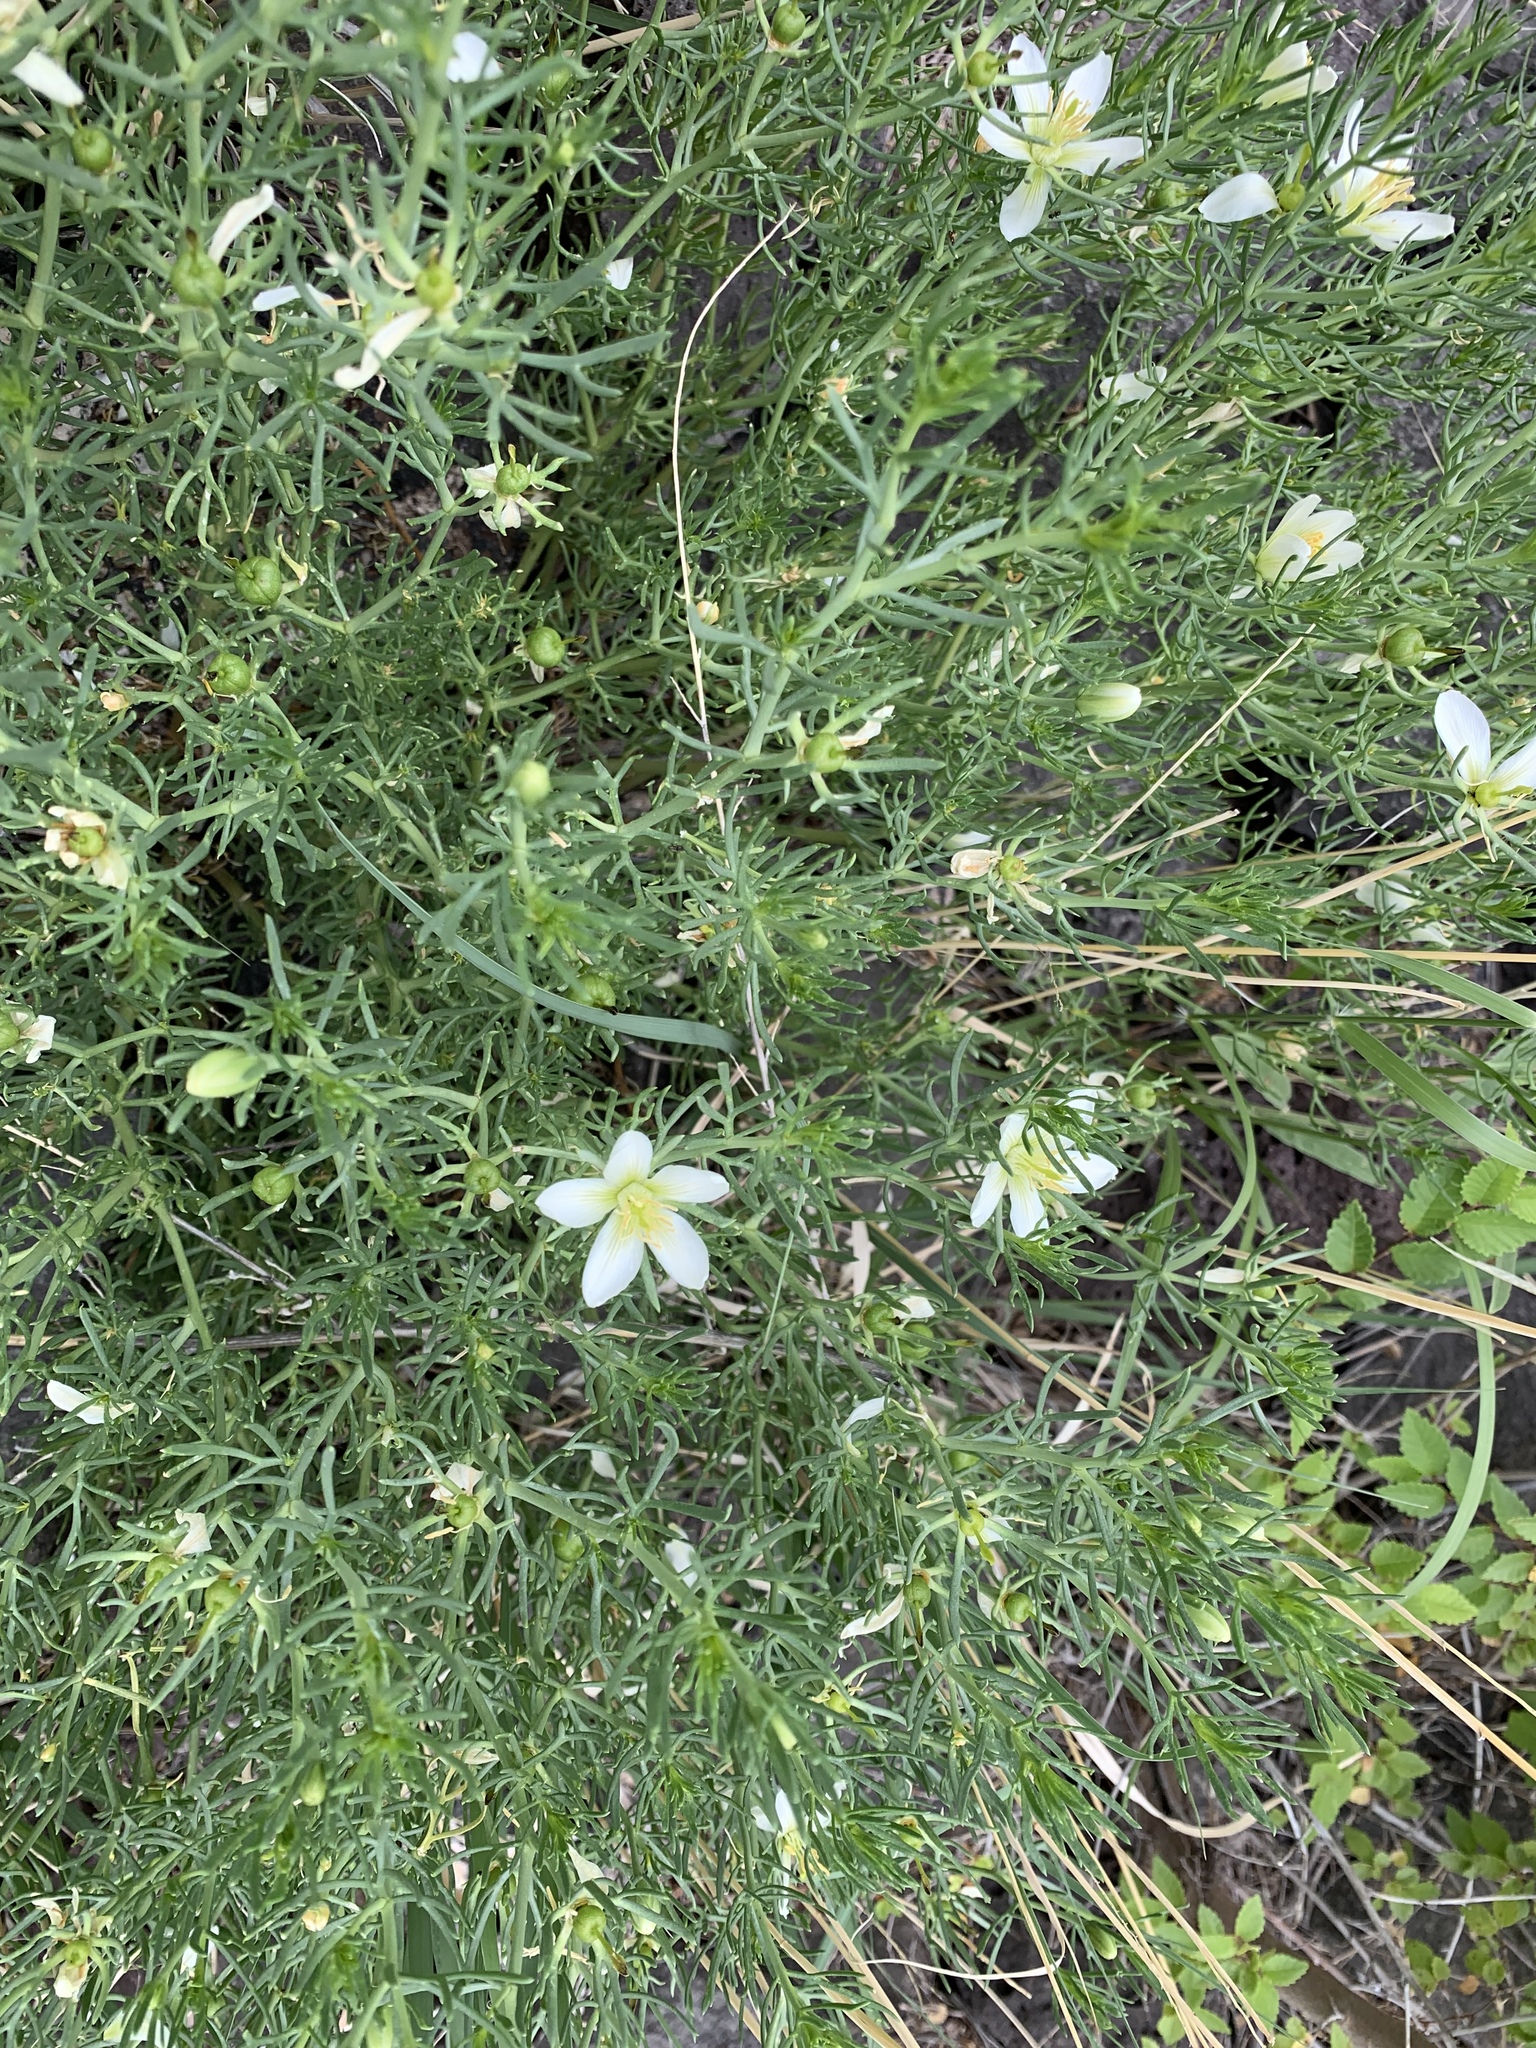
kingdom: Plantae
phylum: Tracheophyta
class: Magnoliopsida
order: Sapindales
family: Tetradiclidaceae
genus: Peganum
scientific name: Peganum harmala
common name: Harmal peganum
